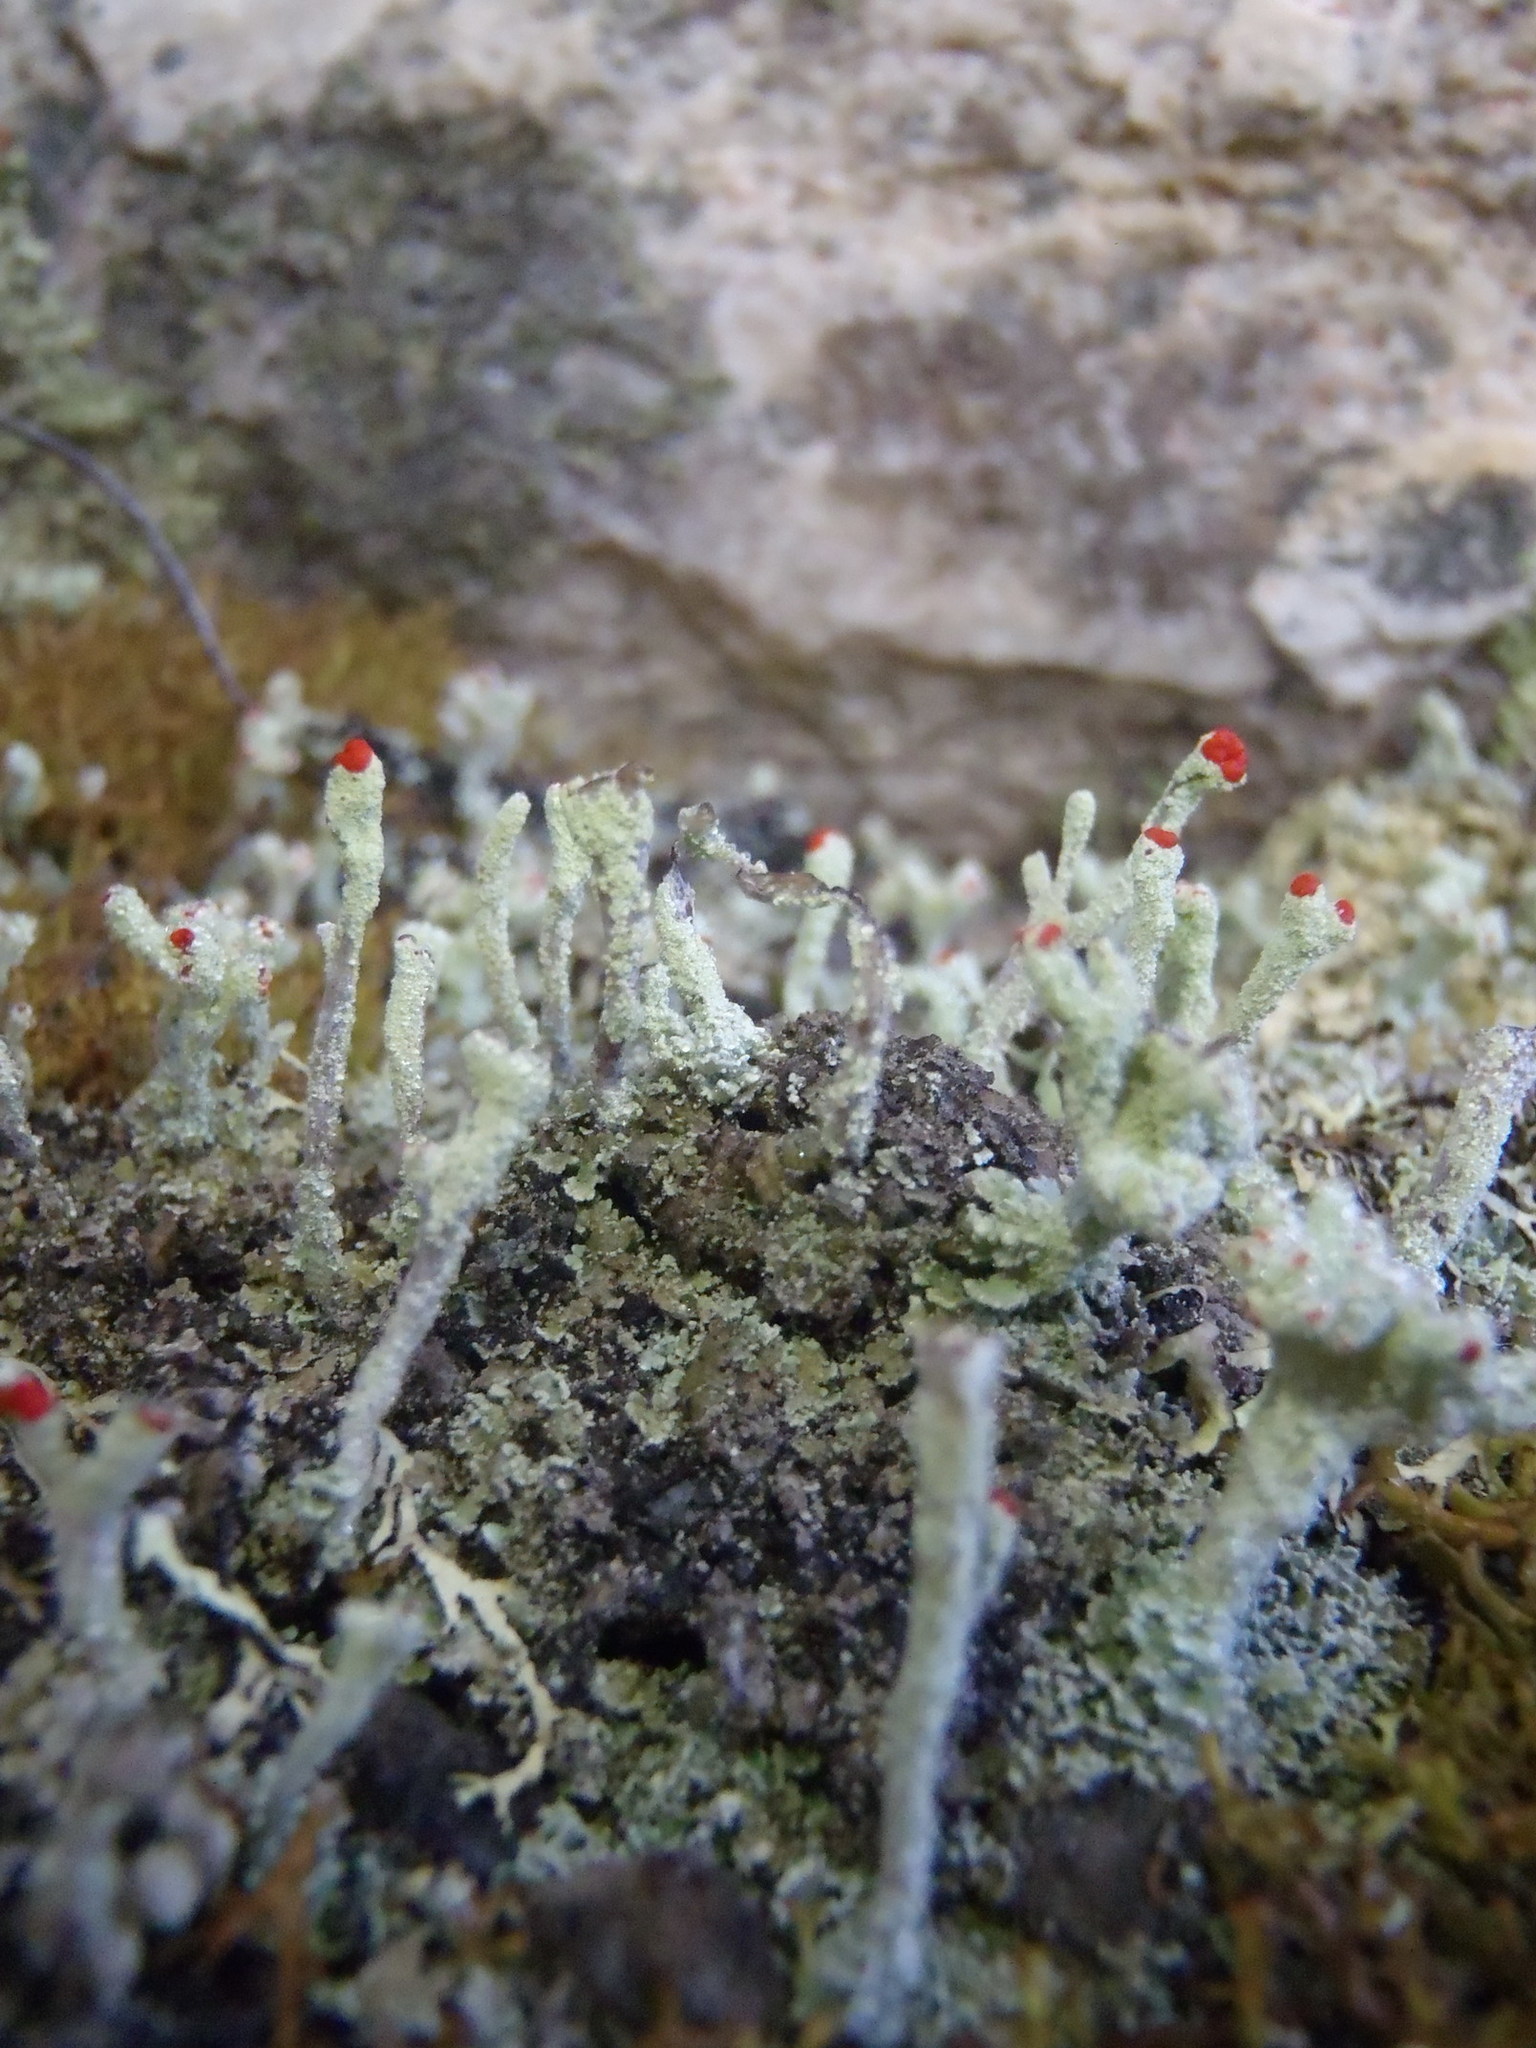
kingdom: Fungi
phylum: Ascomycota
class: Lecanoromycetes
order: Lecanorales
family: Cladoniaceae
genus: Cladonia
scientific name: Cladonia macilenta
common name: Lipstick powderhorn
